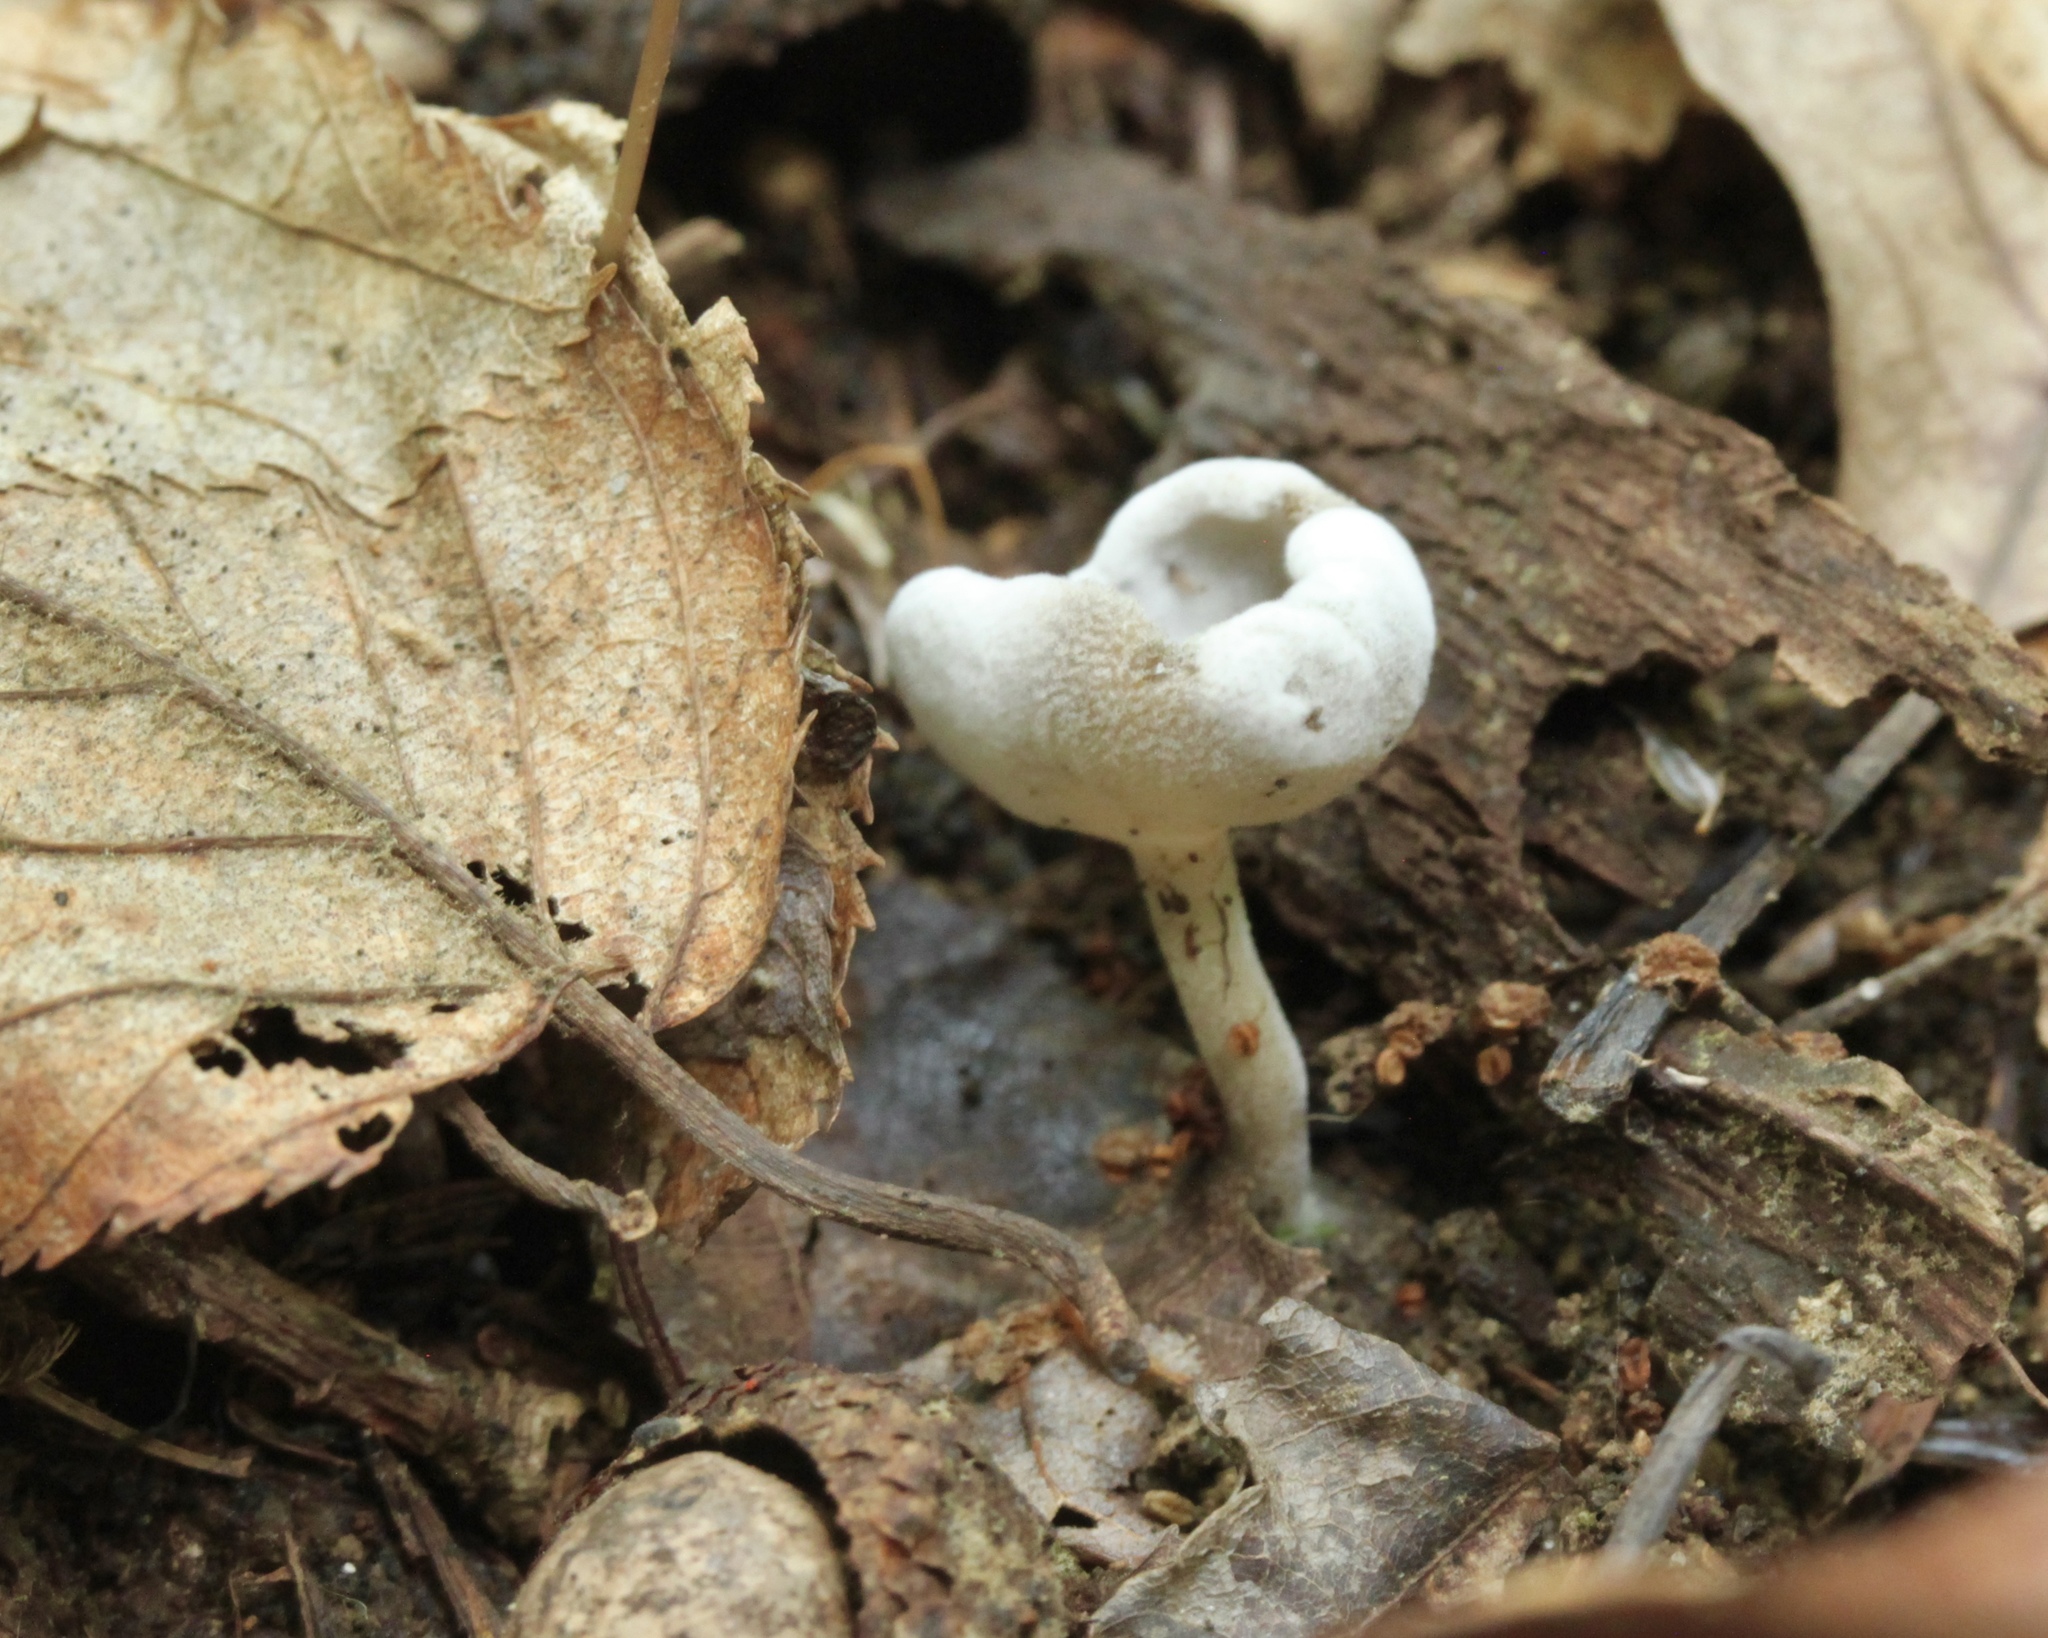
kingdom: Fungi
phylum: Ascomycota
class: Sordariomycetes
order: Hypocreales
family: Hypocreaceae
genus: Hypomyces
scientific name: Hypomyces cervinus
